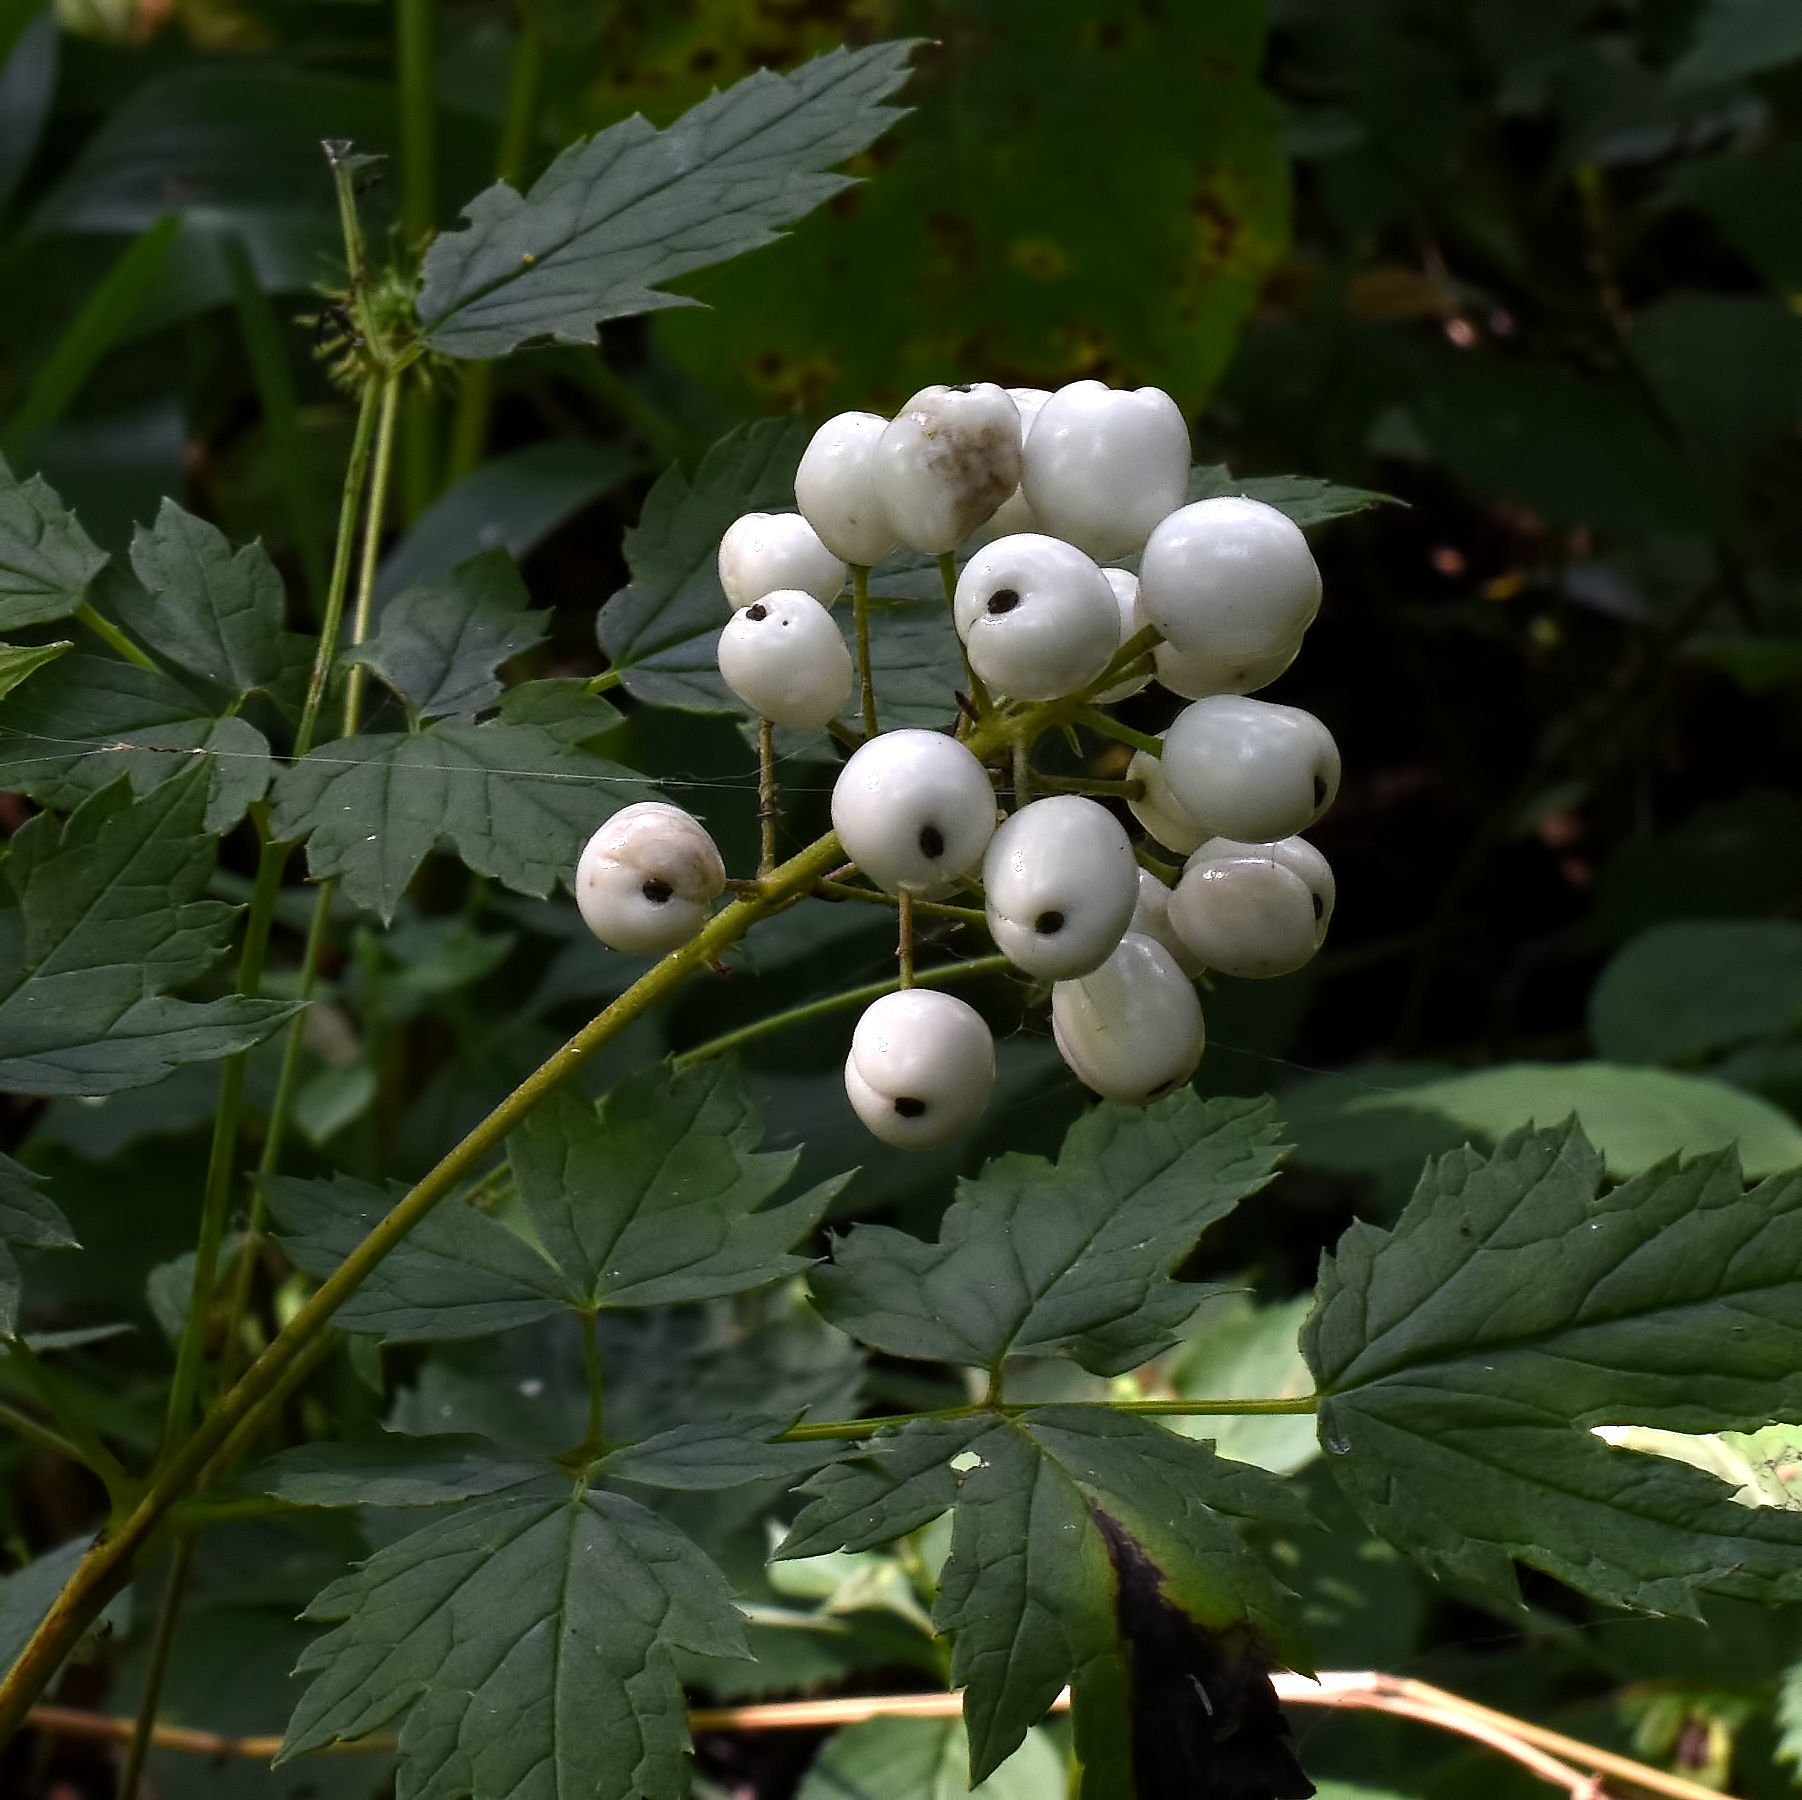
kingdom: Plantae
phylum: Tracheophyta
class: Magnoliopsida
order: Ranunculales
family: Ranunculaceae
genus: Actaea
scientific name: Actaea rubra
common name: Red baneberry
